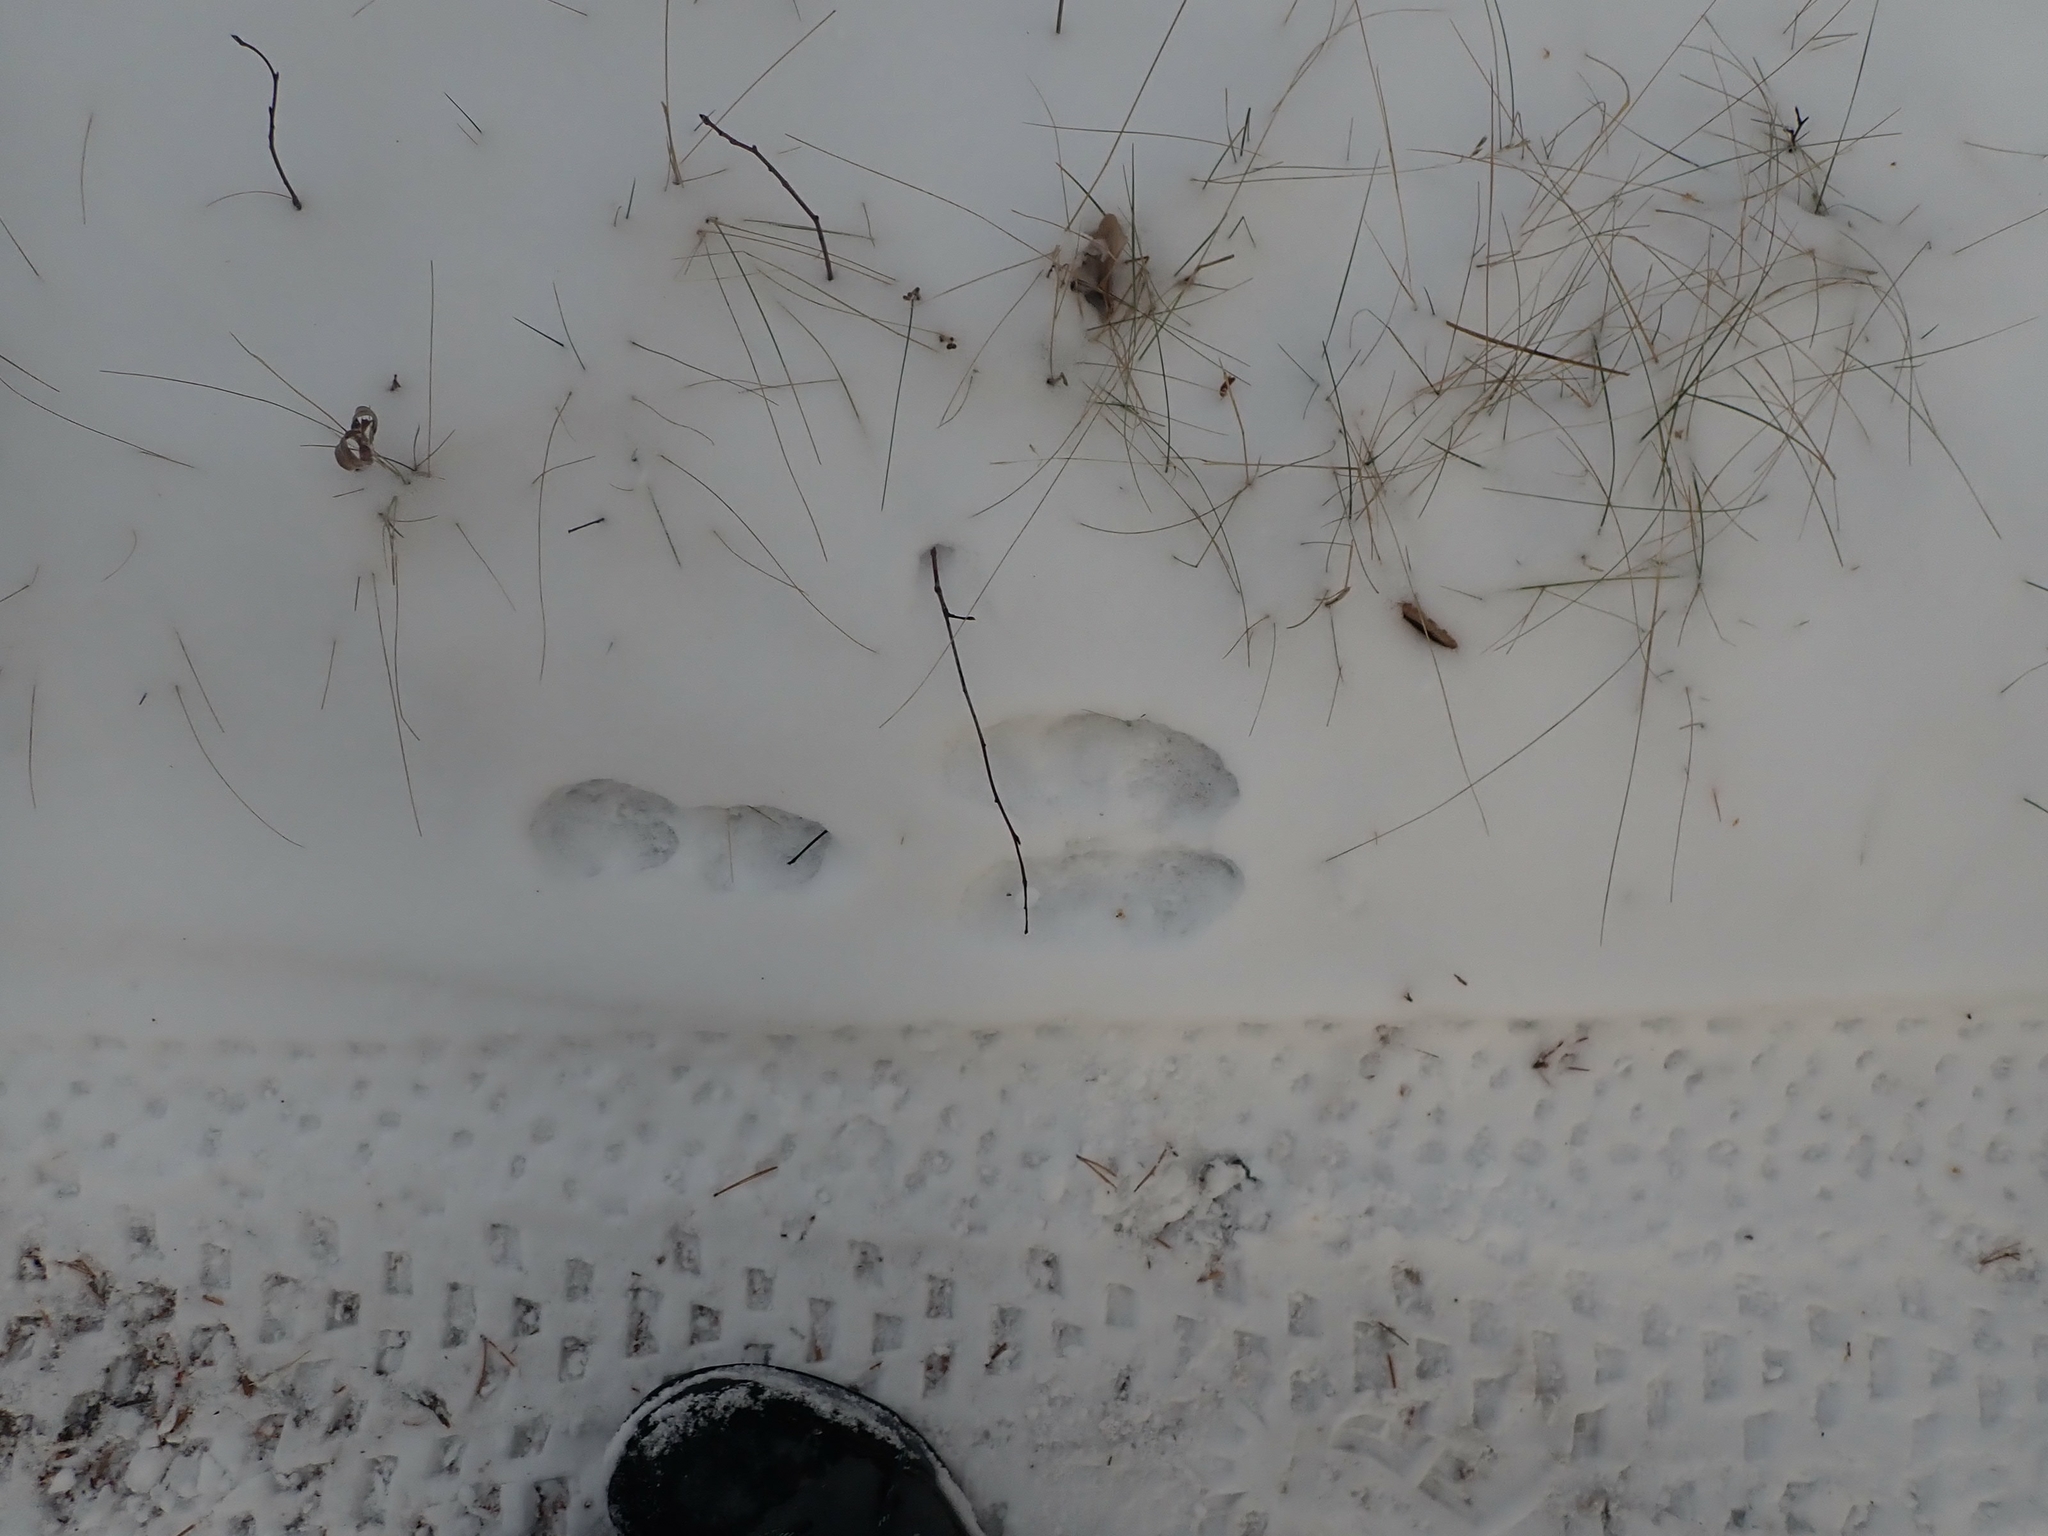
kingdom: Animalia
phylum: Chordata
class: Mammalia
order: Lagomorpha
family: Leporidae
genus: Lepus
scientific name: Lepus americanus
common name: Snowshoe hare
